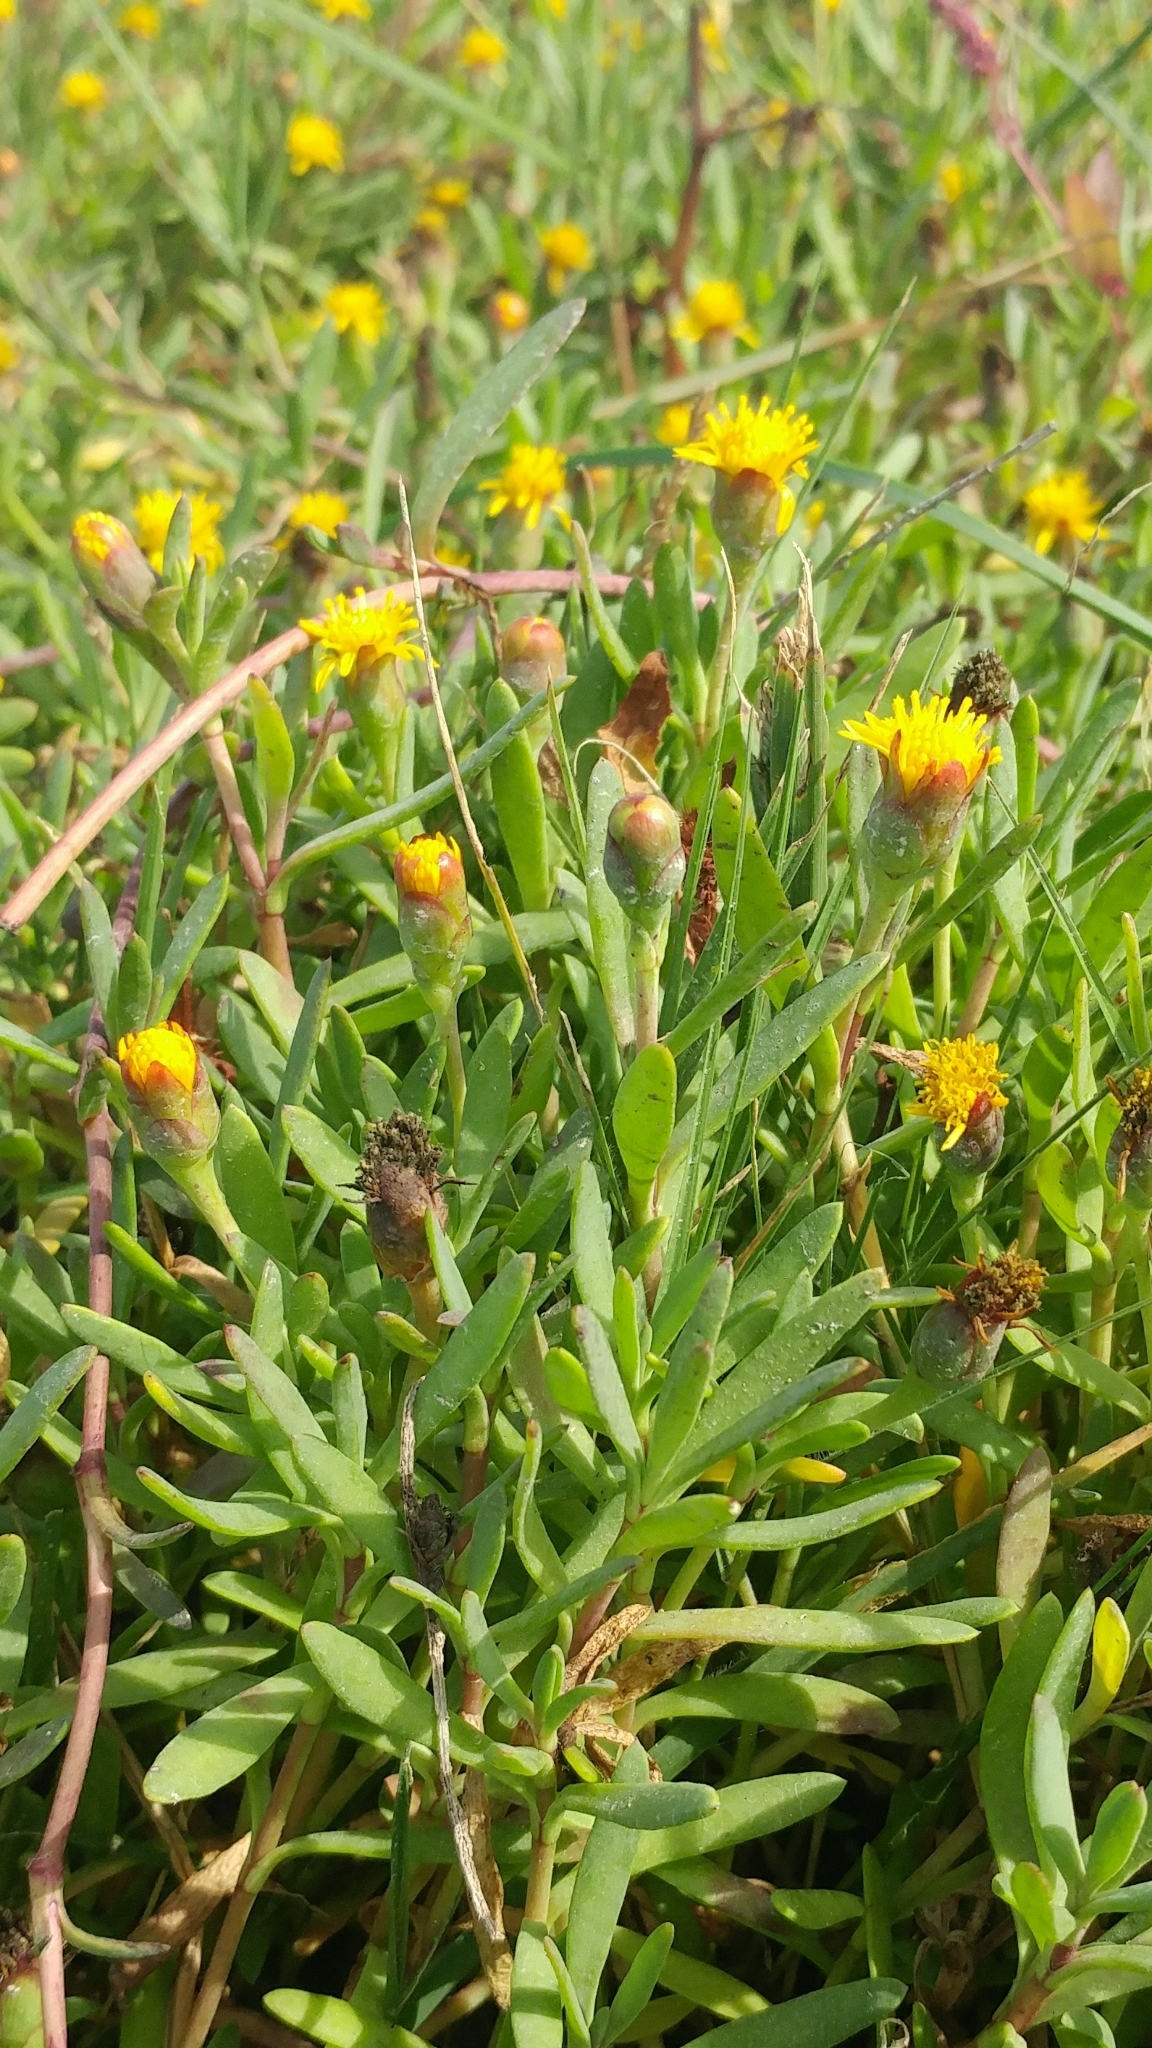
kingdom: Plantae
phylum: Tracheophyta
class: Magnoliopsida
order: Asterales
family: Asteraceae
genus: Jaumea
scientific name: Jaumea carnosa
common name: Fleshy jaumea
